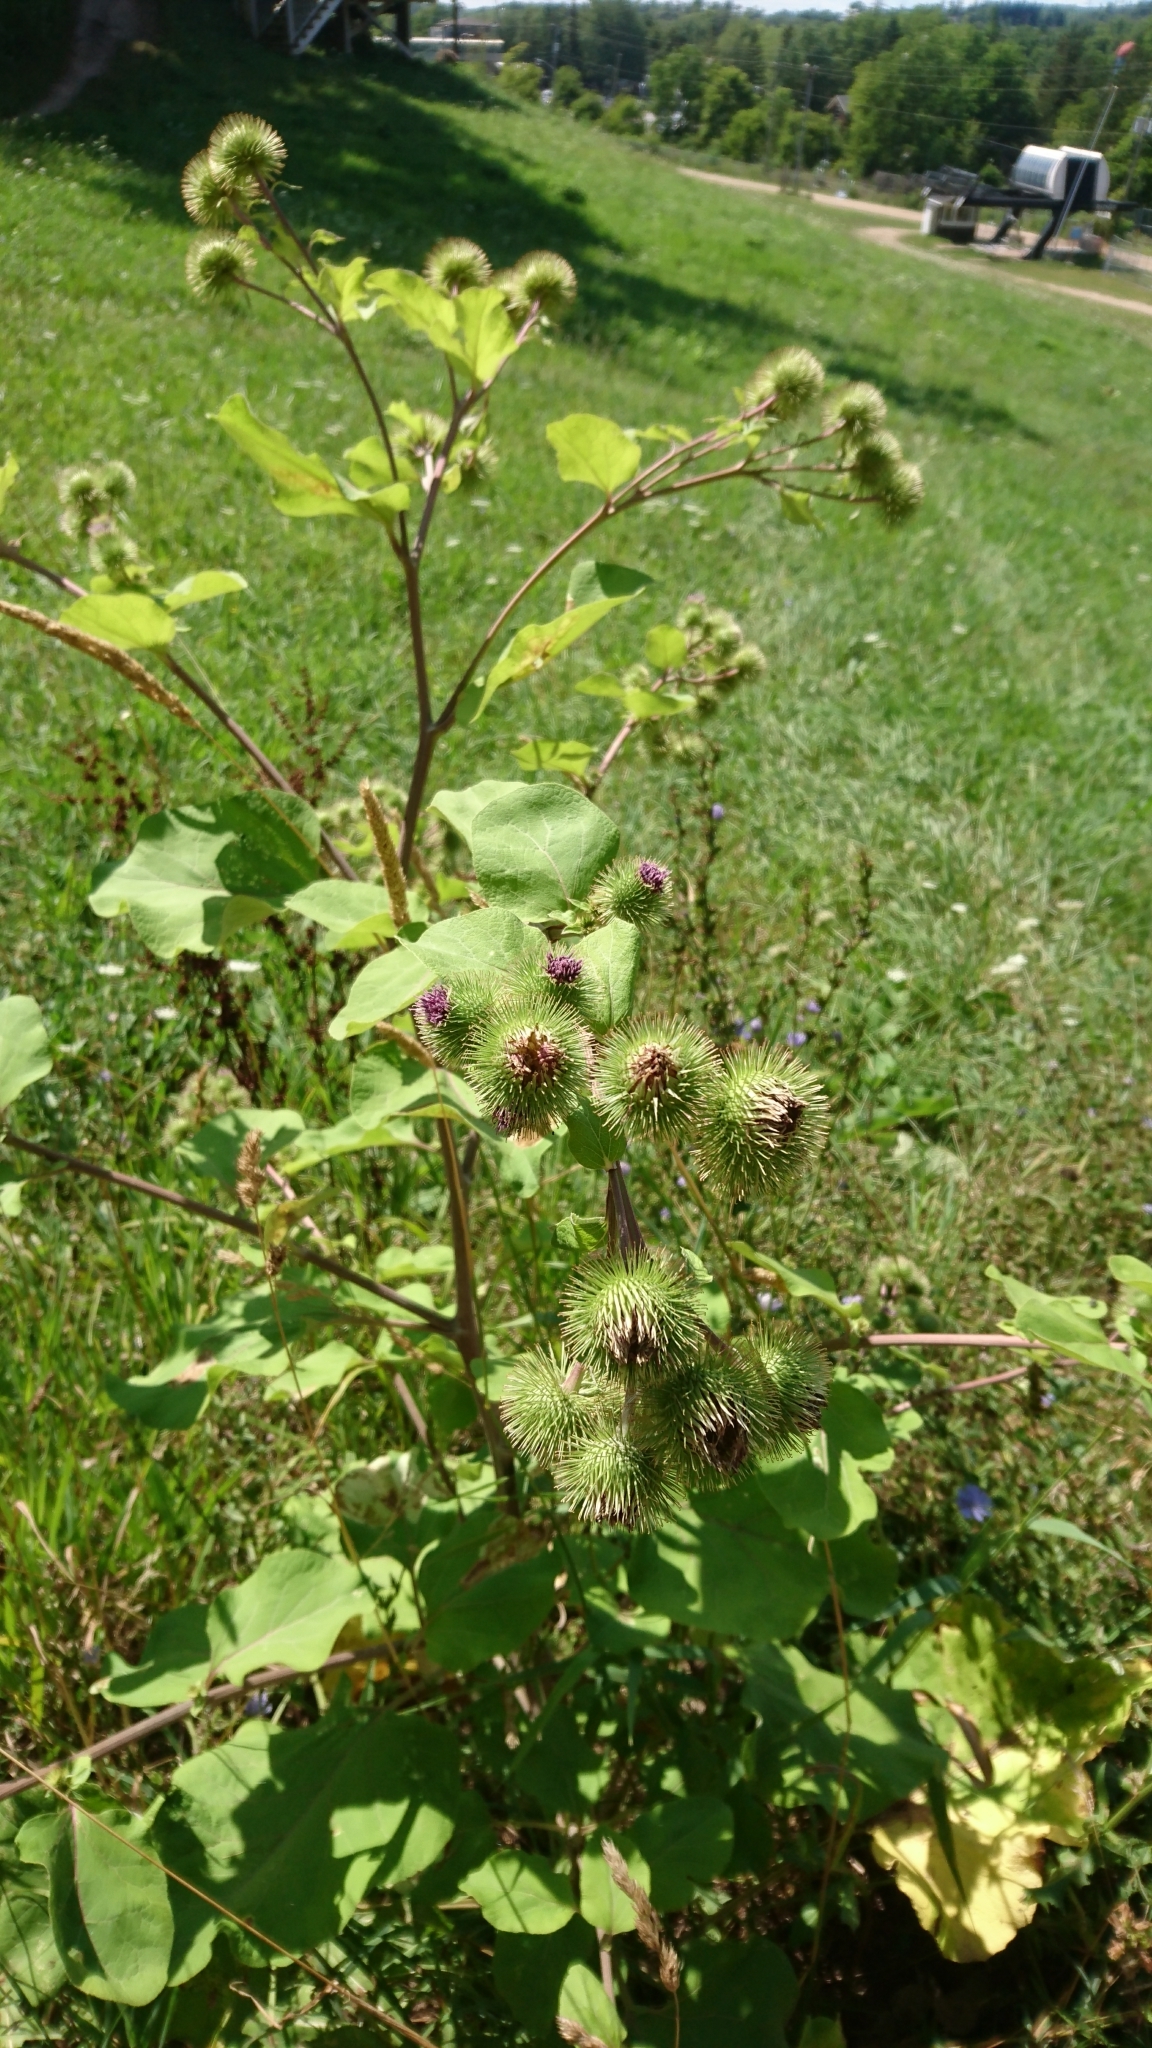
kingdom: Plantae
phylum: Tracheophyta
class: Magnoliopsida
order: Asterales
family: Asteraceae
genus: Arctium
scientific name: Arctium lappa
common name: Greater burdock
